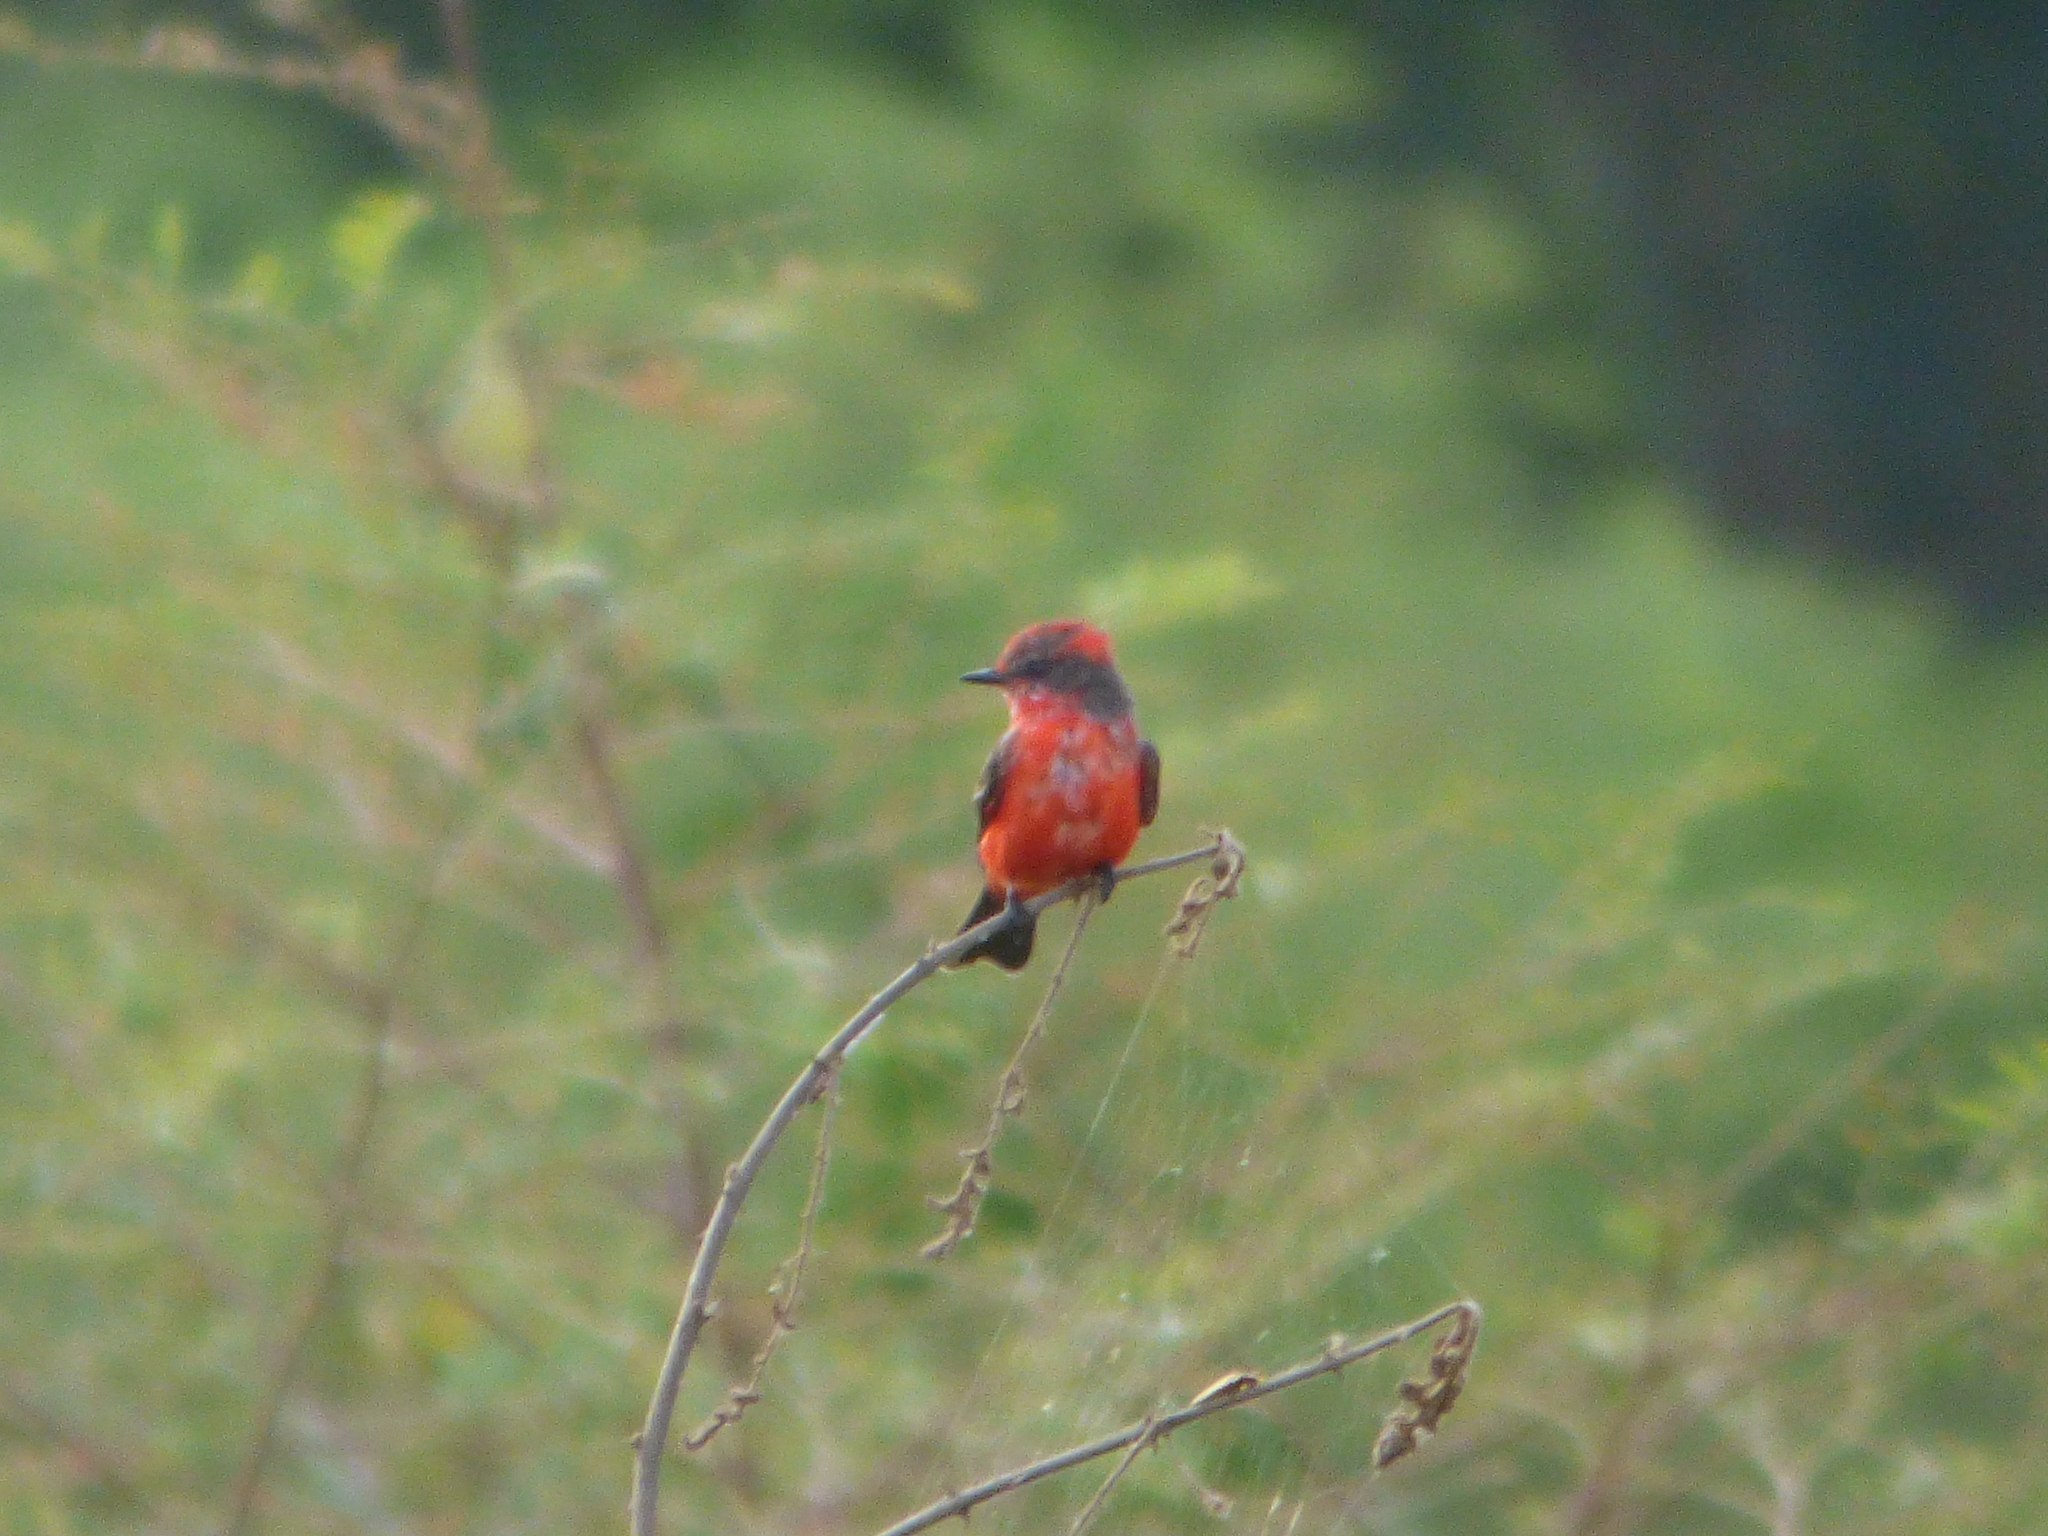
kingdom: Animalia
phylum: Chordata
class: Aves
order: Passeriformes
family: Tyrannidae
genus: Pyrocephalus
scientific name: Pyrocephalus rubinus
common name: Vermilion flycatcher
